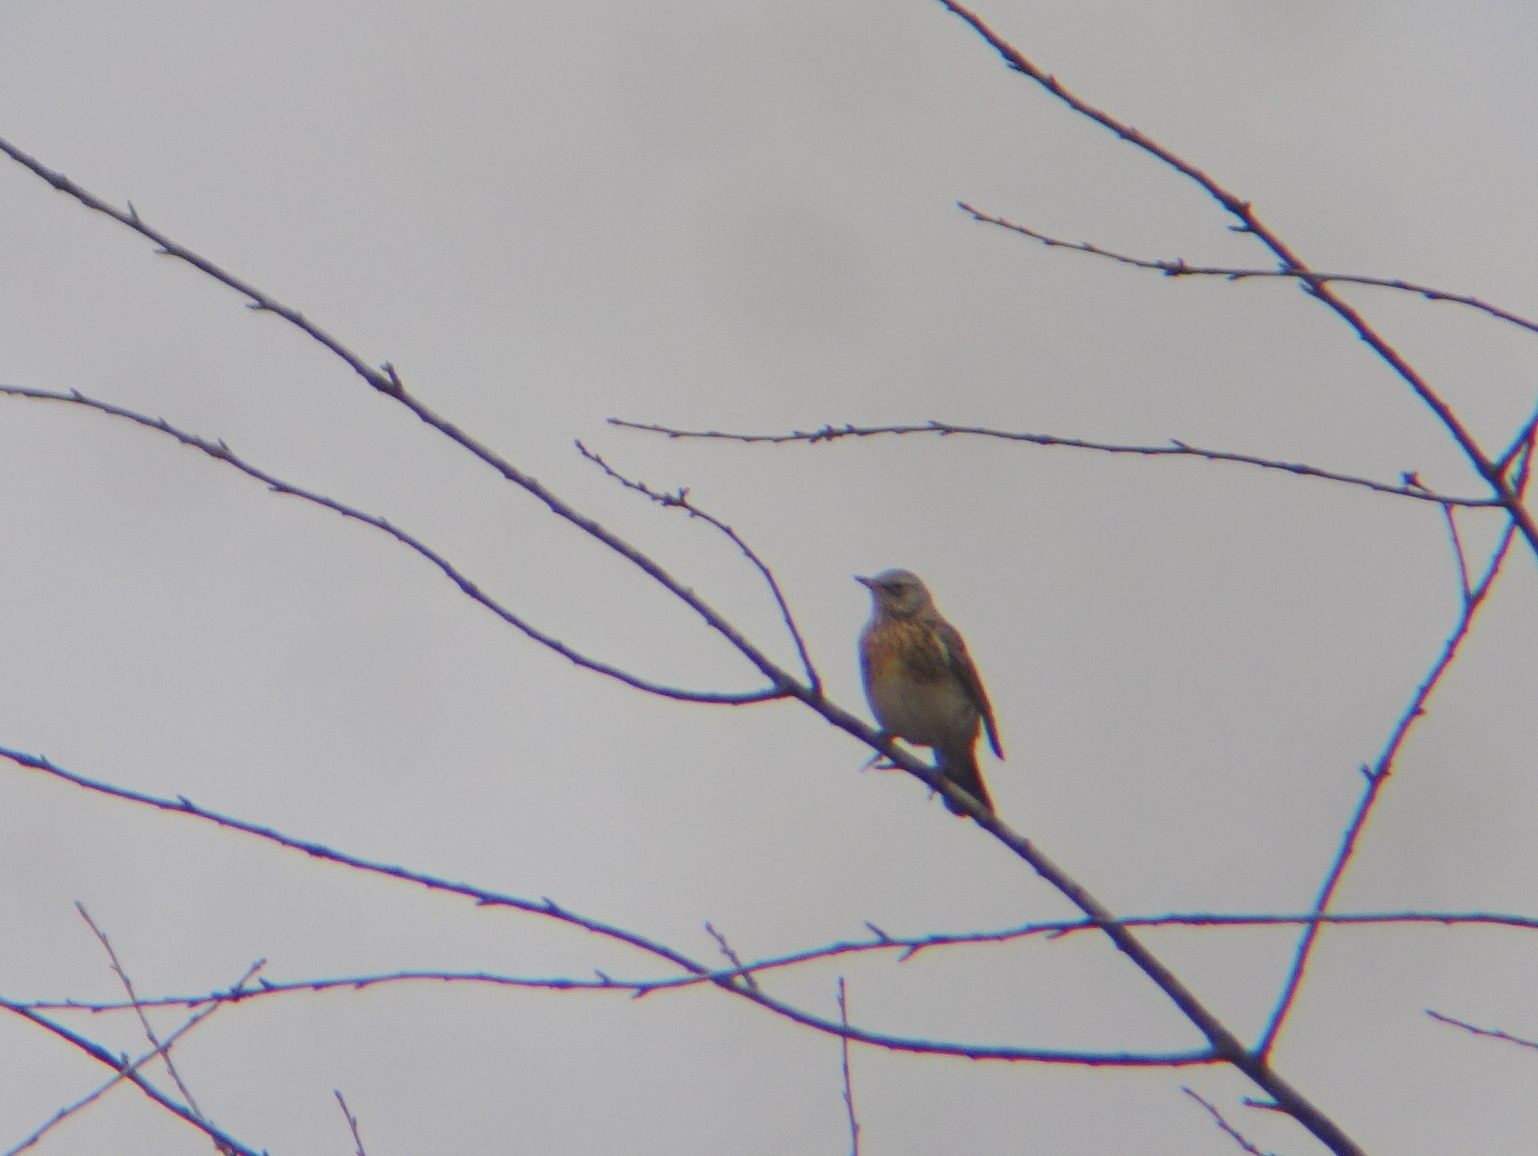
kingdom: Animalia
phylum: Chordata
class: Aves
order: Passeriformes
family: Turdidae
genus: Turdus
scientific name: Turdus pilaris
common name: Fieldfare
